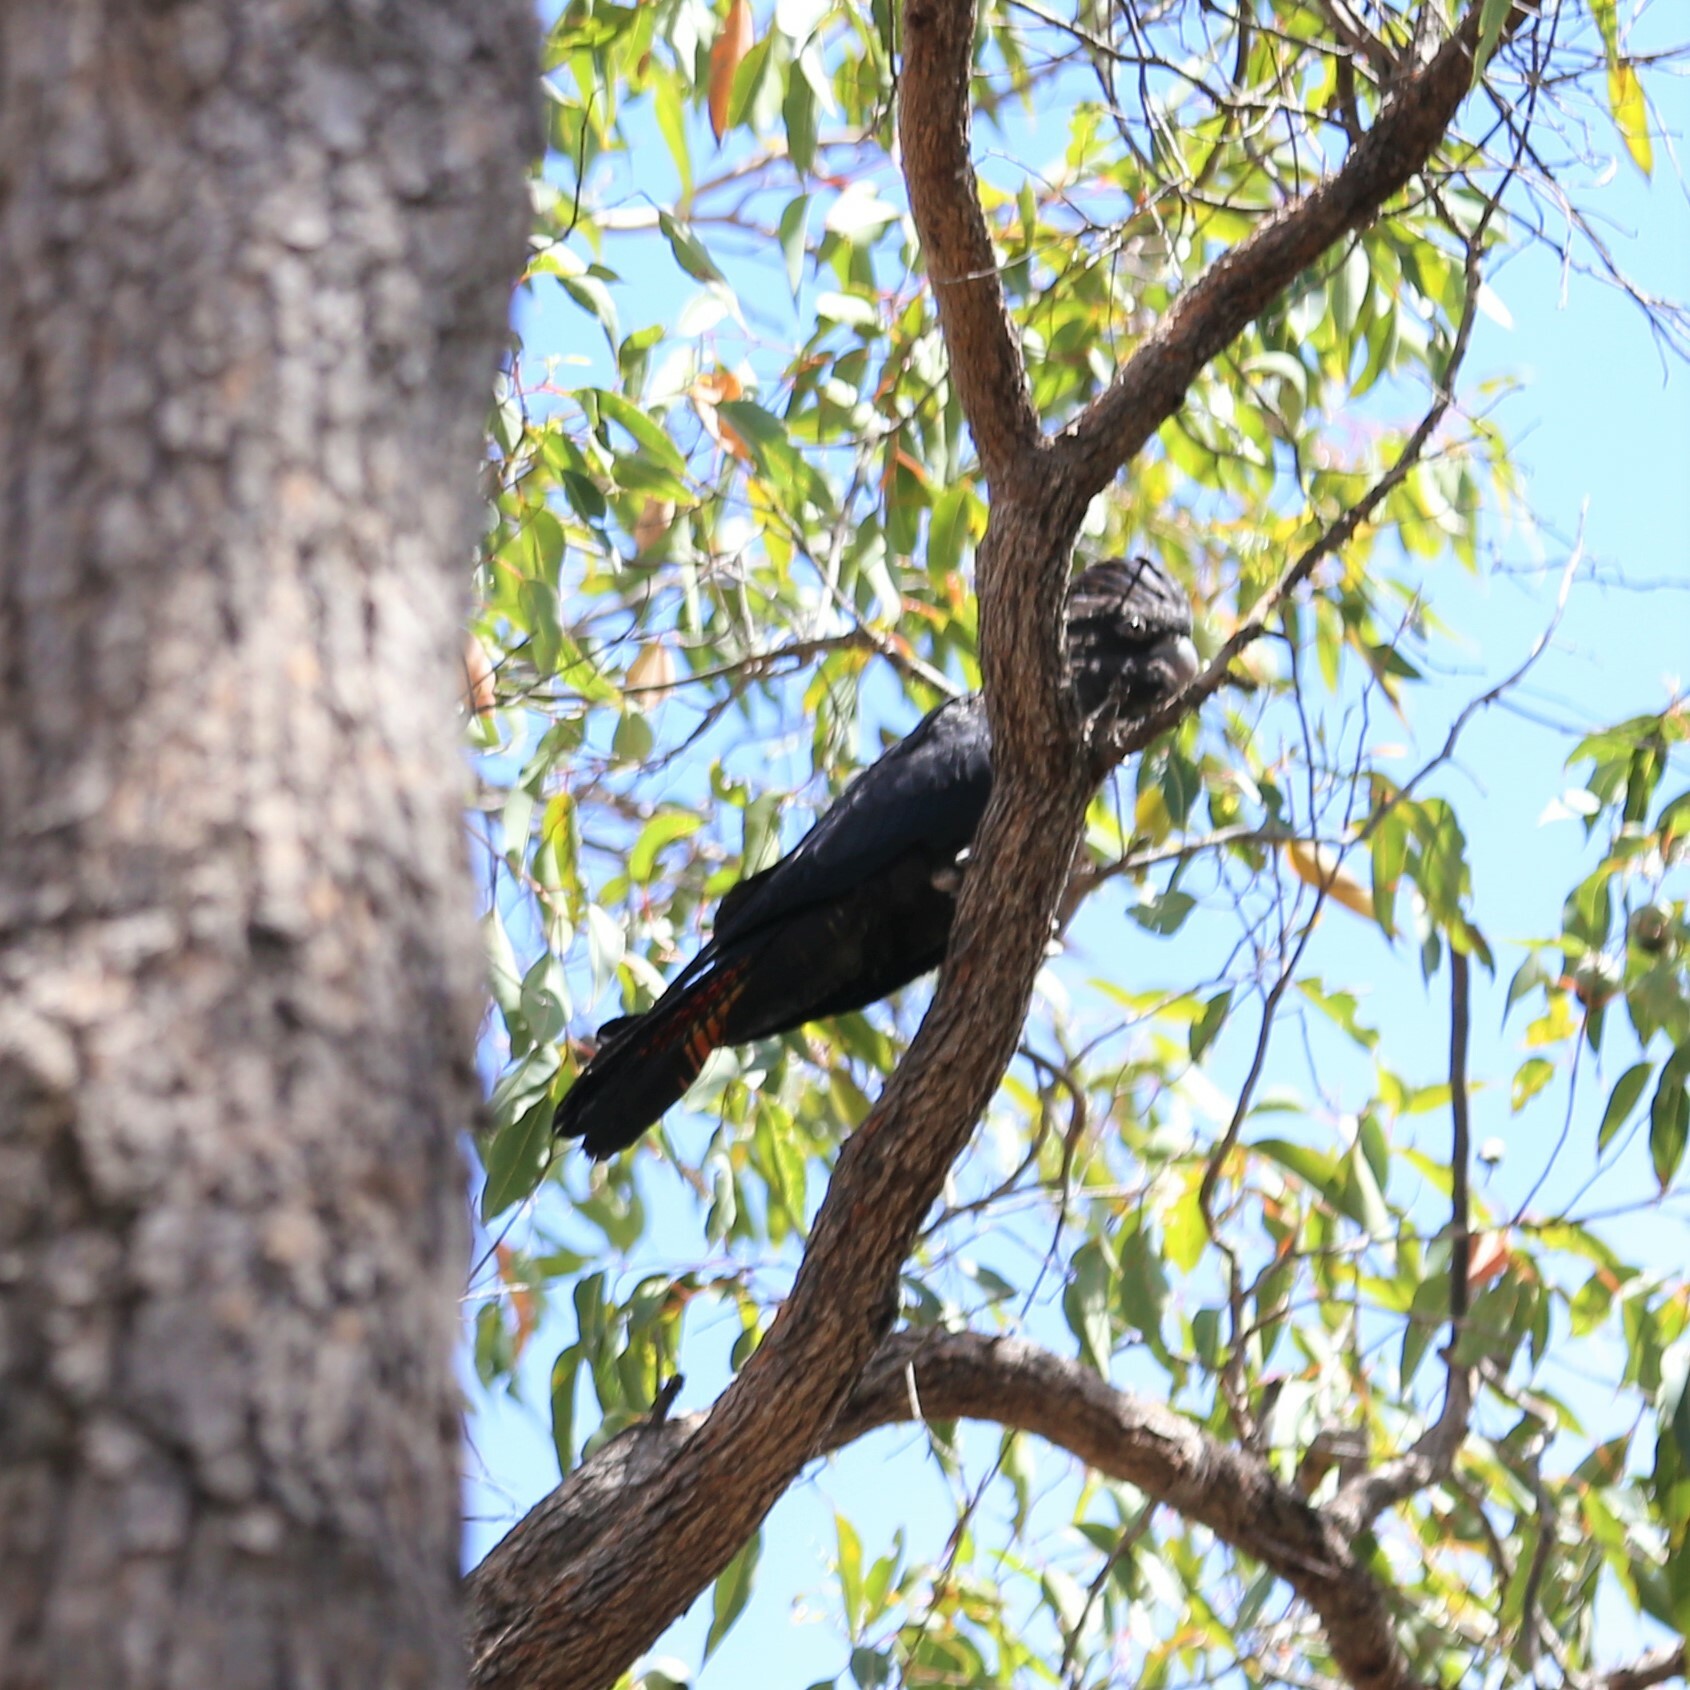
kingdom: Animalia
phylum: Chordata
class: Aves
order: Psittaciformes
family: Psittacidae
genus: Calyptorhynchus
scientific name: Calyptorhynchus banksii
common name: Red-tailed black cockatoo
